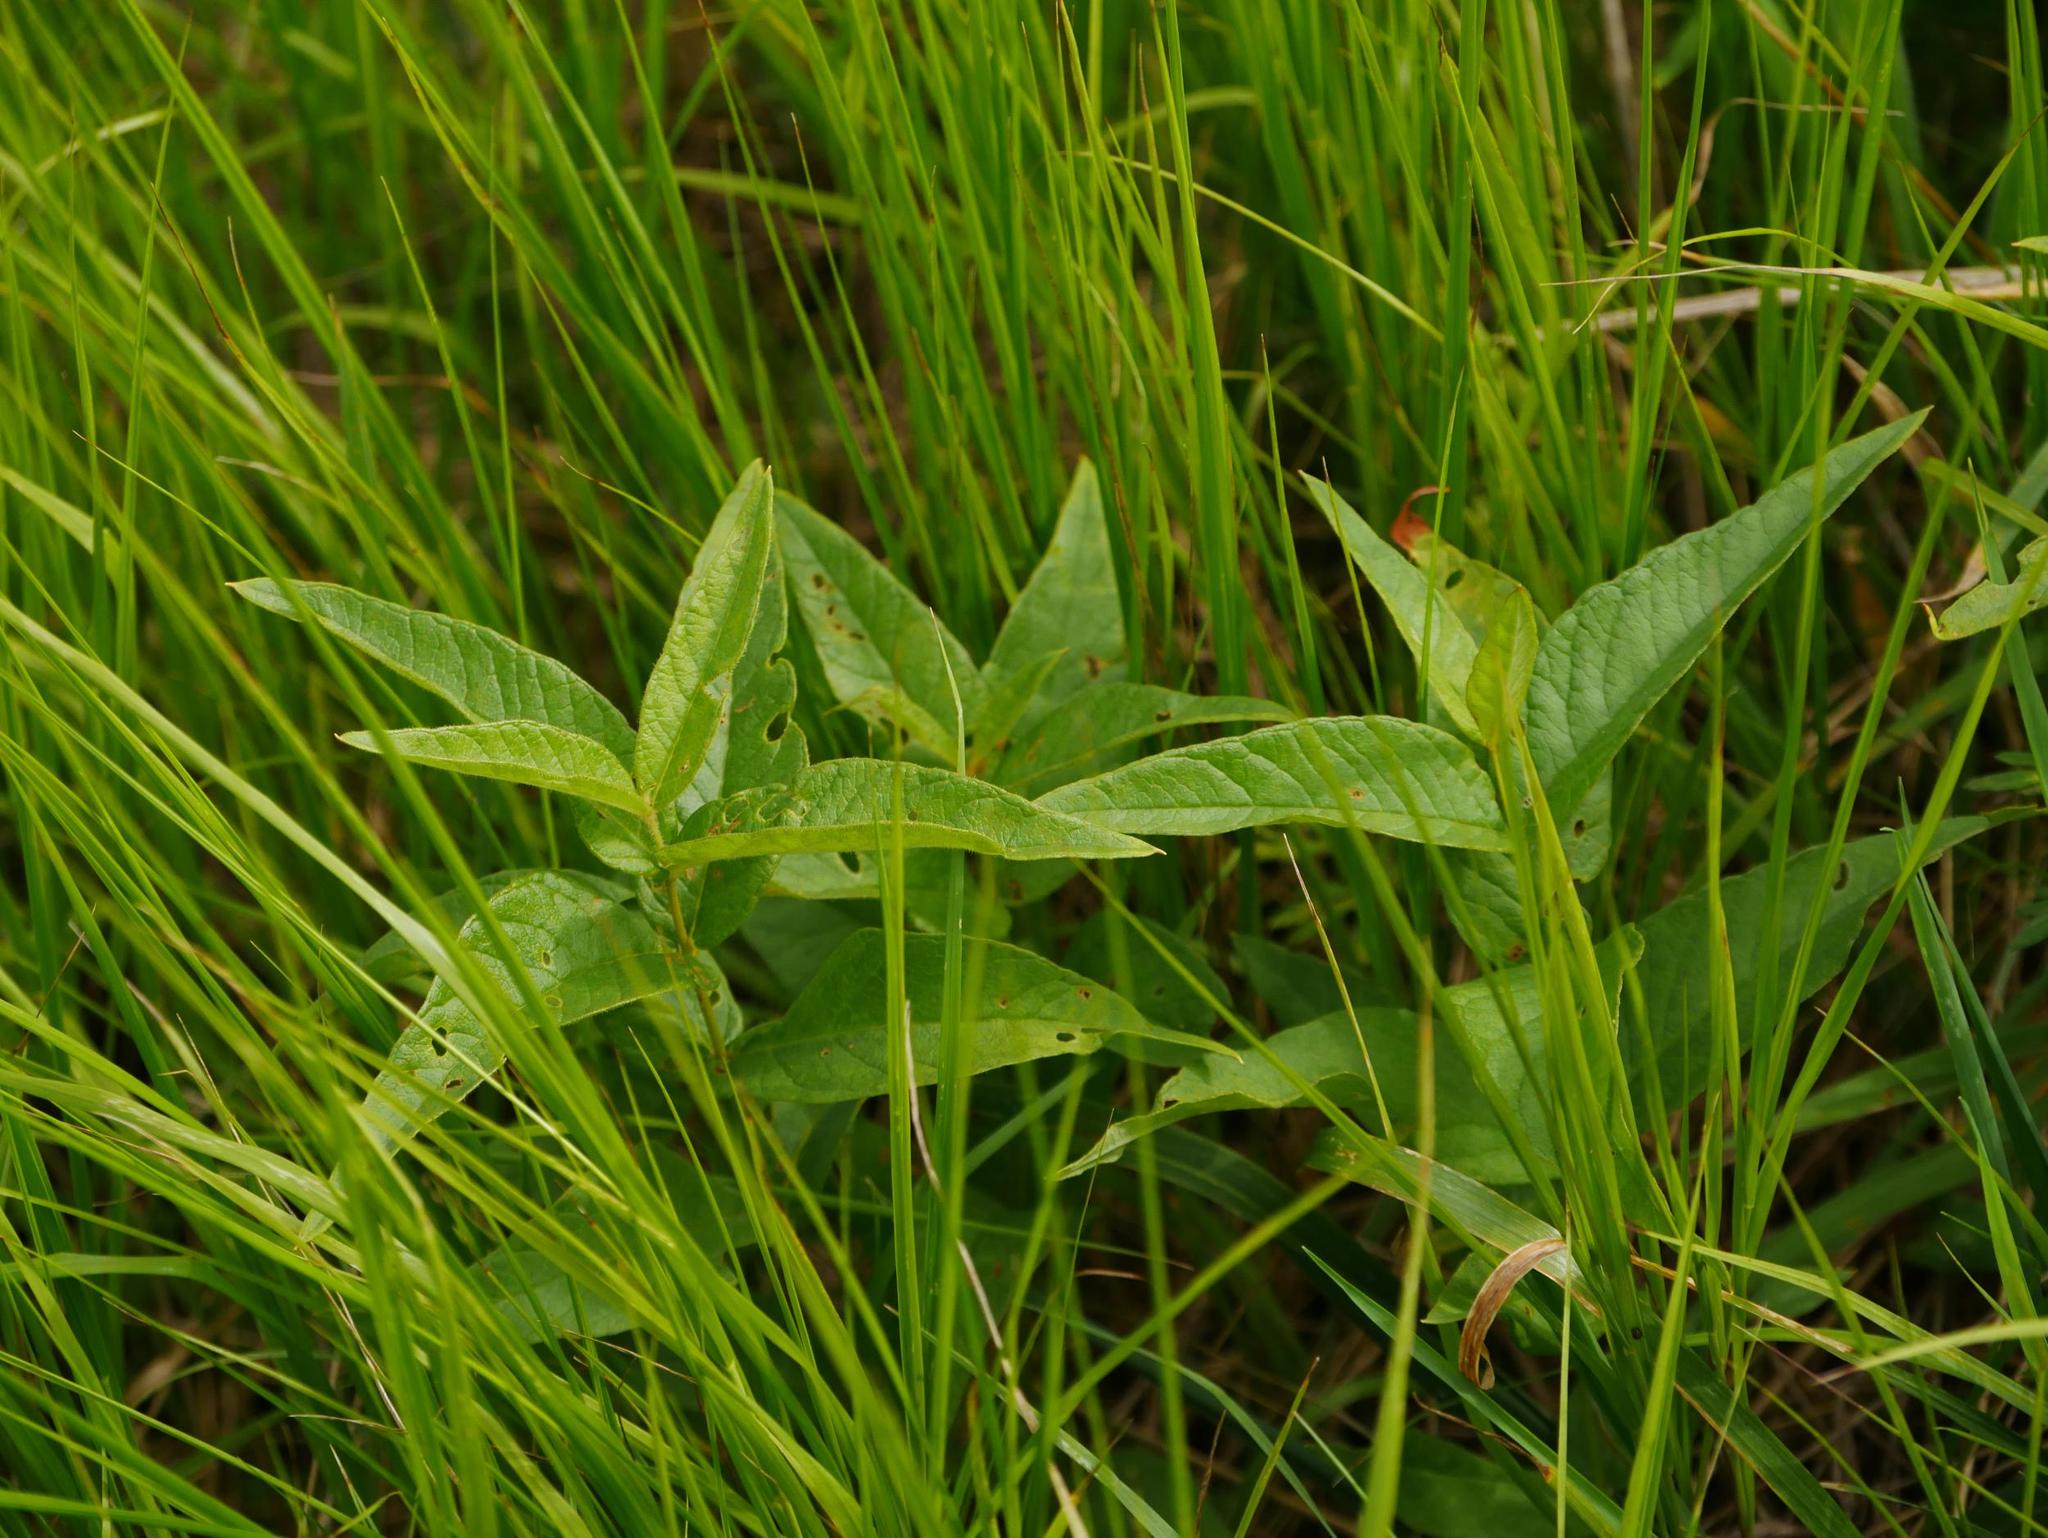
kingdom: Plantae
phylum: Tracheophyta
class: Magnoliopsida
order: Ericales
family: Primulaceae
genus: Lysimachia
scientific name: Lysimachia vulgaris
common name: Yellow loosestrife
